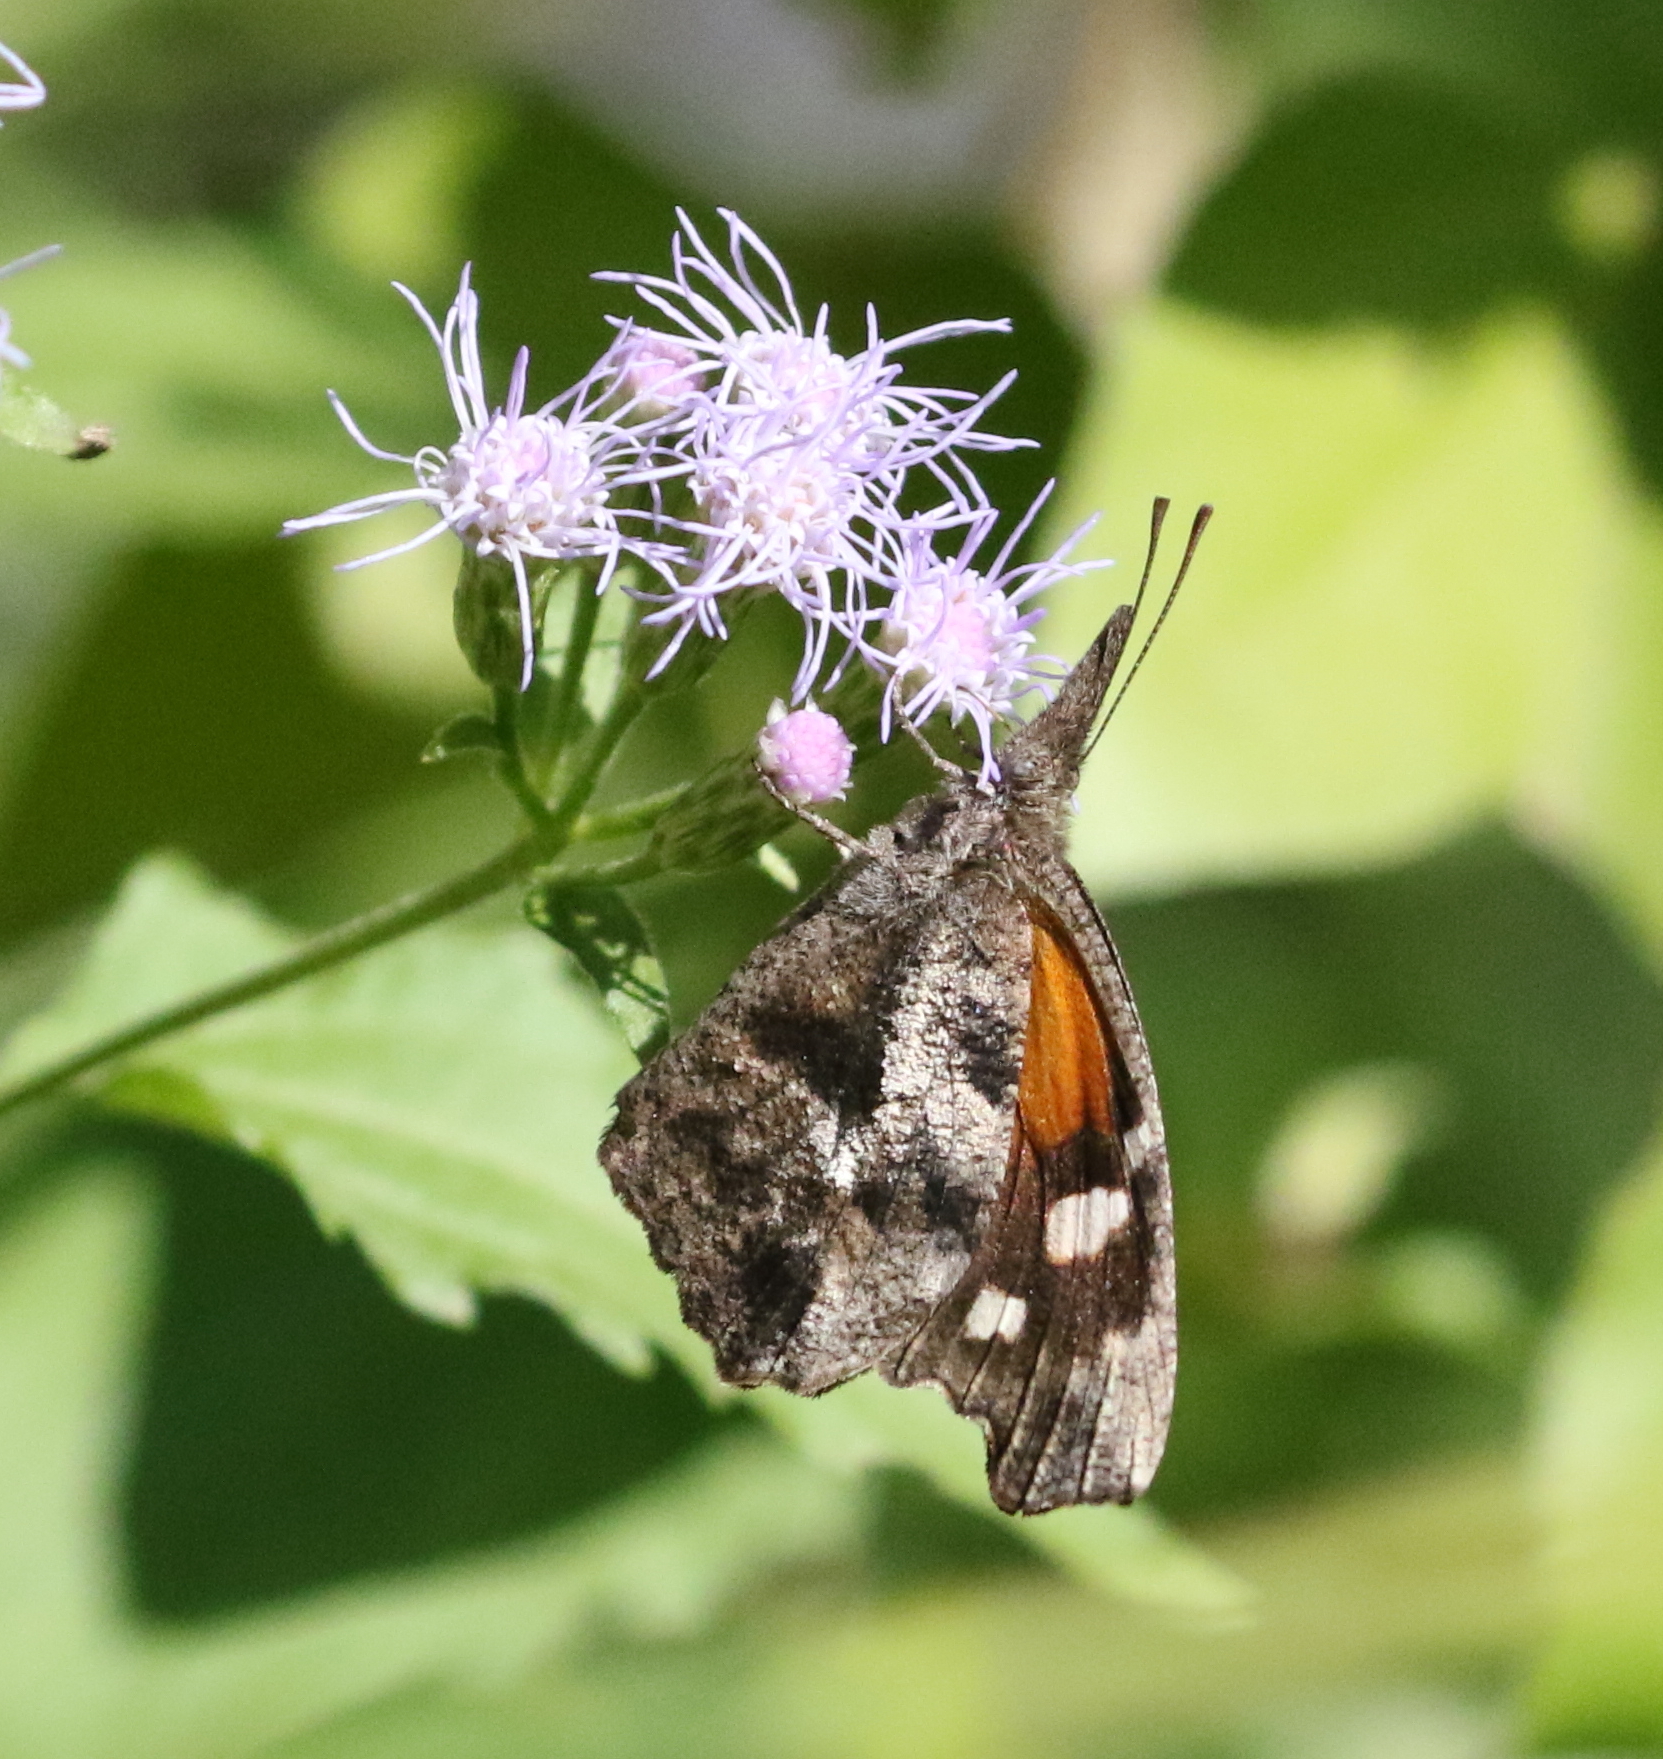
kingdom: Animalia
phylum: Arthropoda
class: Insecta
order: Lepidoptera
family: Nymphalidae
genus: Libytheana
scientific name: Libytheana carinenta
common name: American snout
